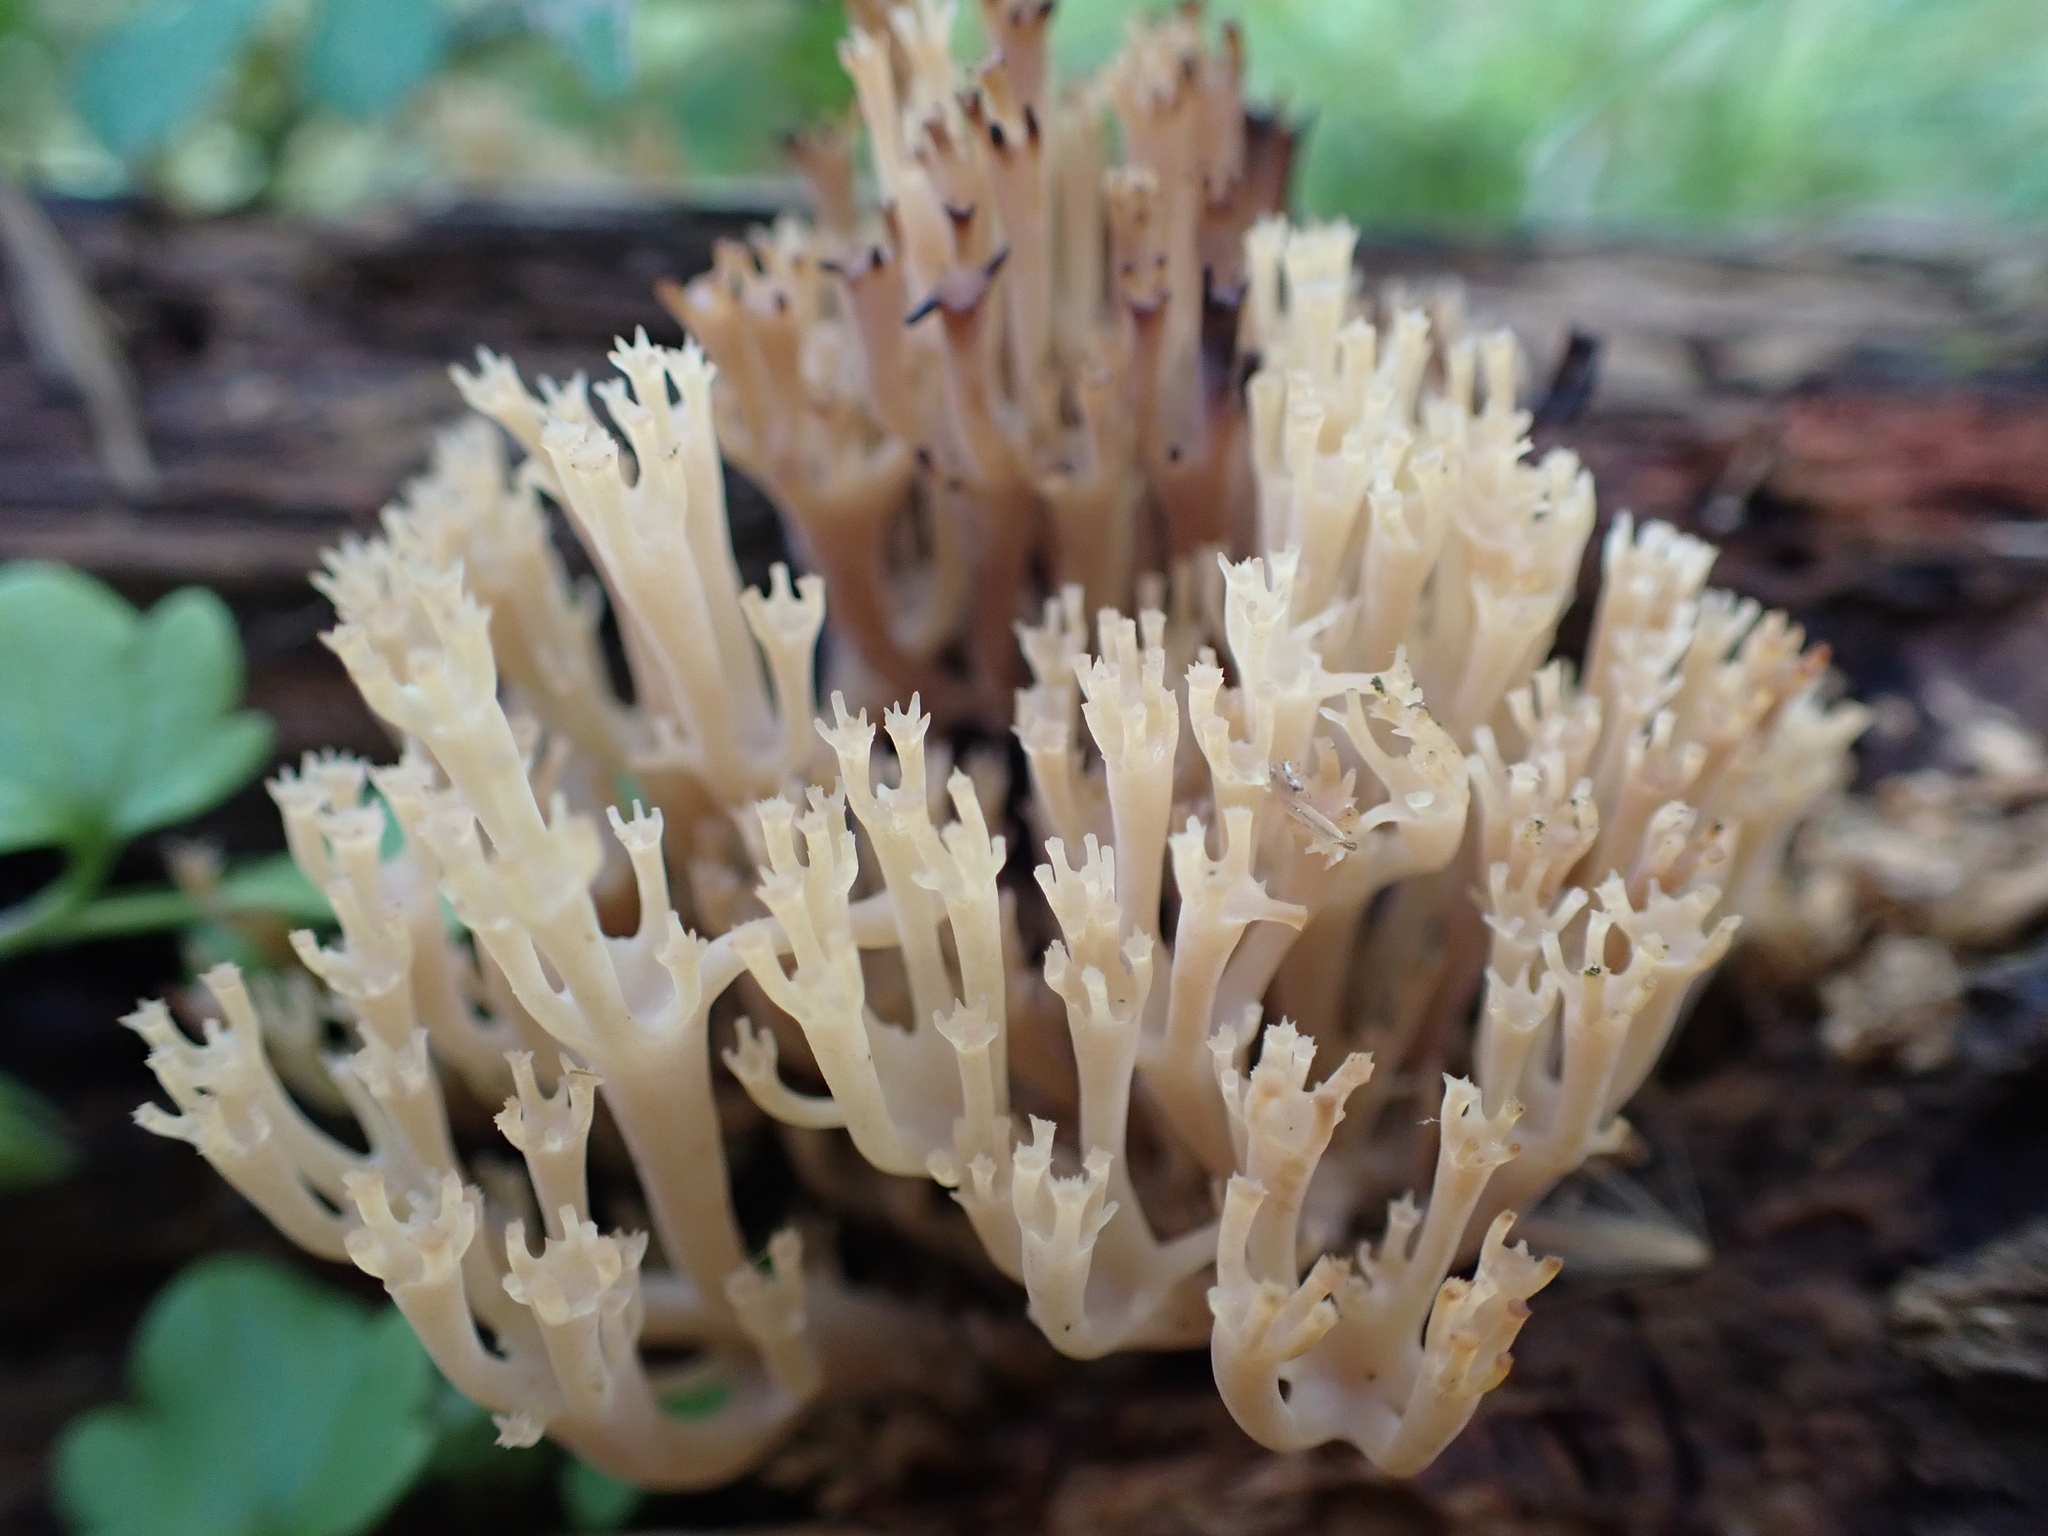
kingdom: Fungi
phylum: Basidiomycota
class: Agaricomycetes
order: Russulales
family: Auriscalpiaceae
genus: Artomyces
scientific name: Artomyces pyxidatus
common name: Crown-tipped coral fungus
